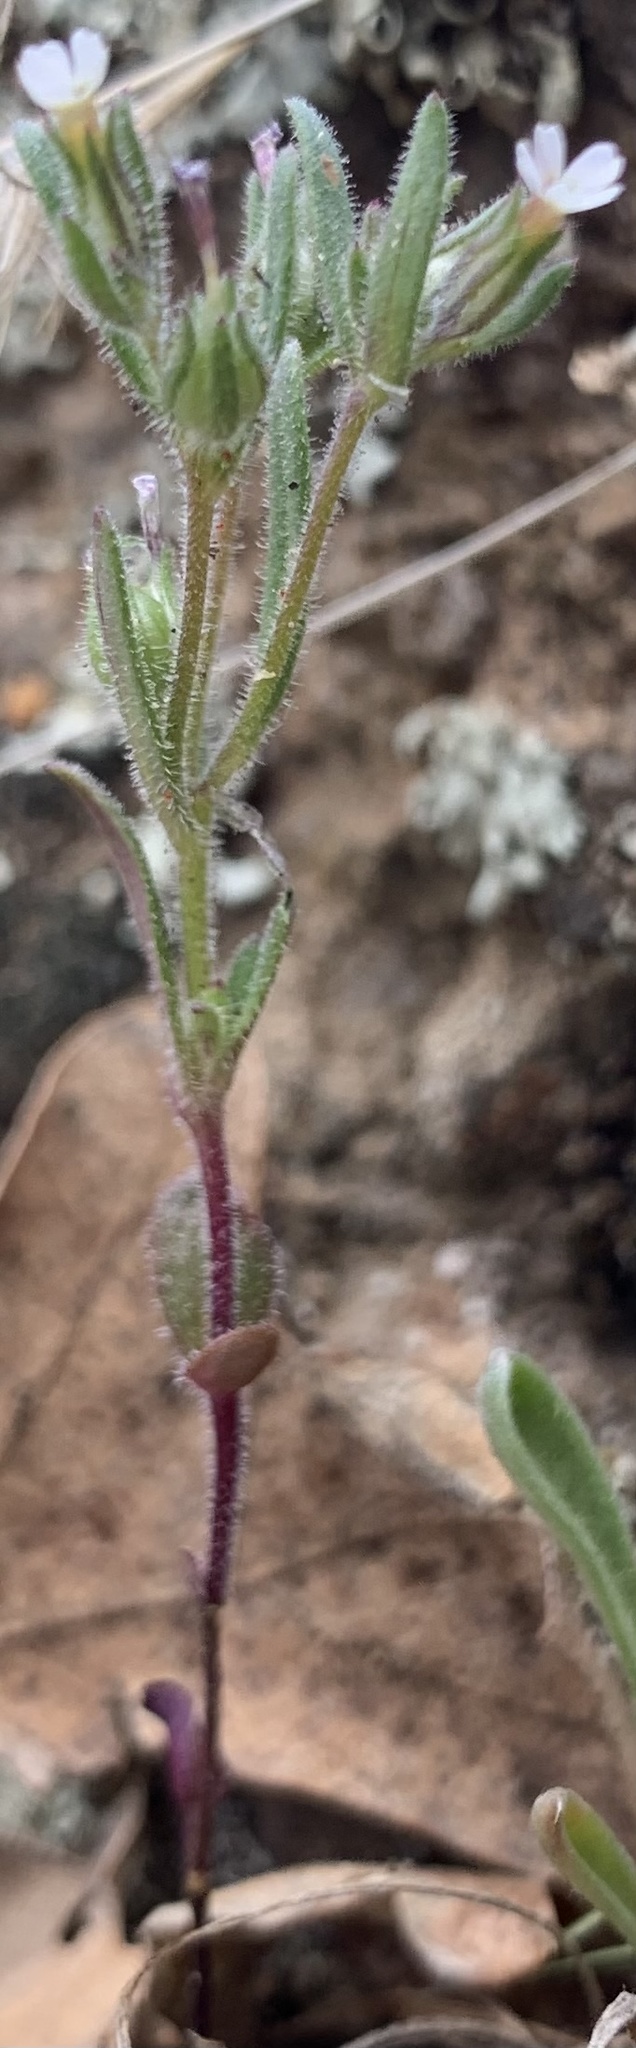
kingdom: Plantae
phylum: Tracheophyta
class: Magnoliopsida
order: Ericales
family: Polemoniaceae
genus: Phlox
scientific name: Phlox gracilis
